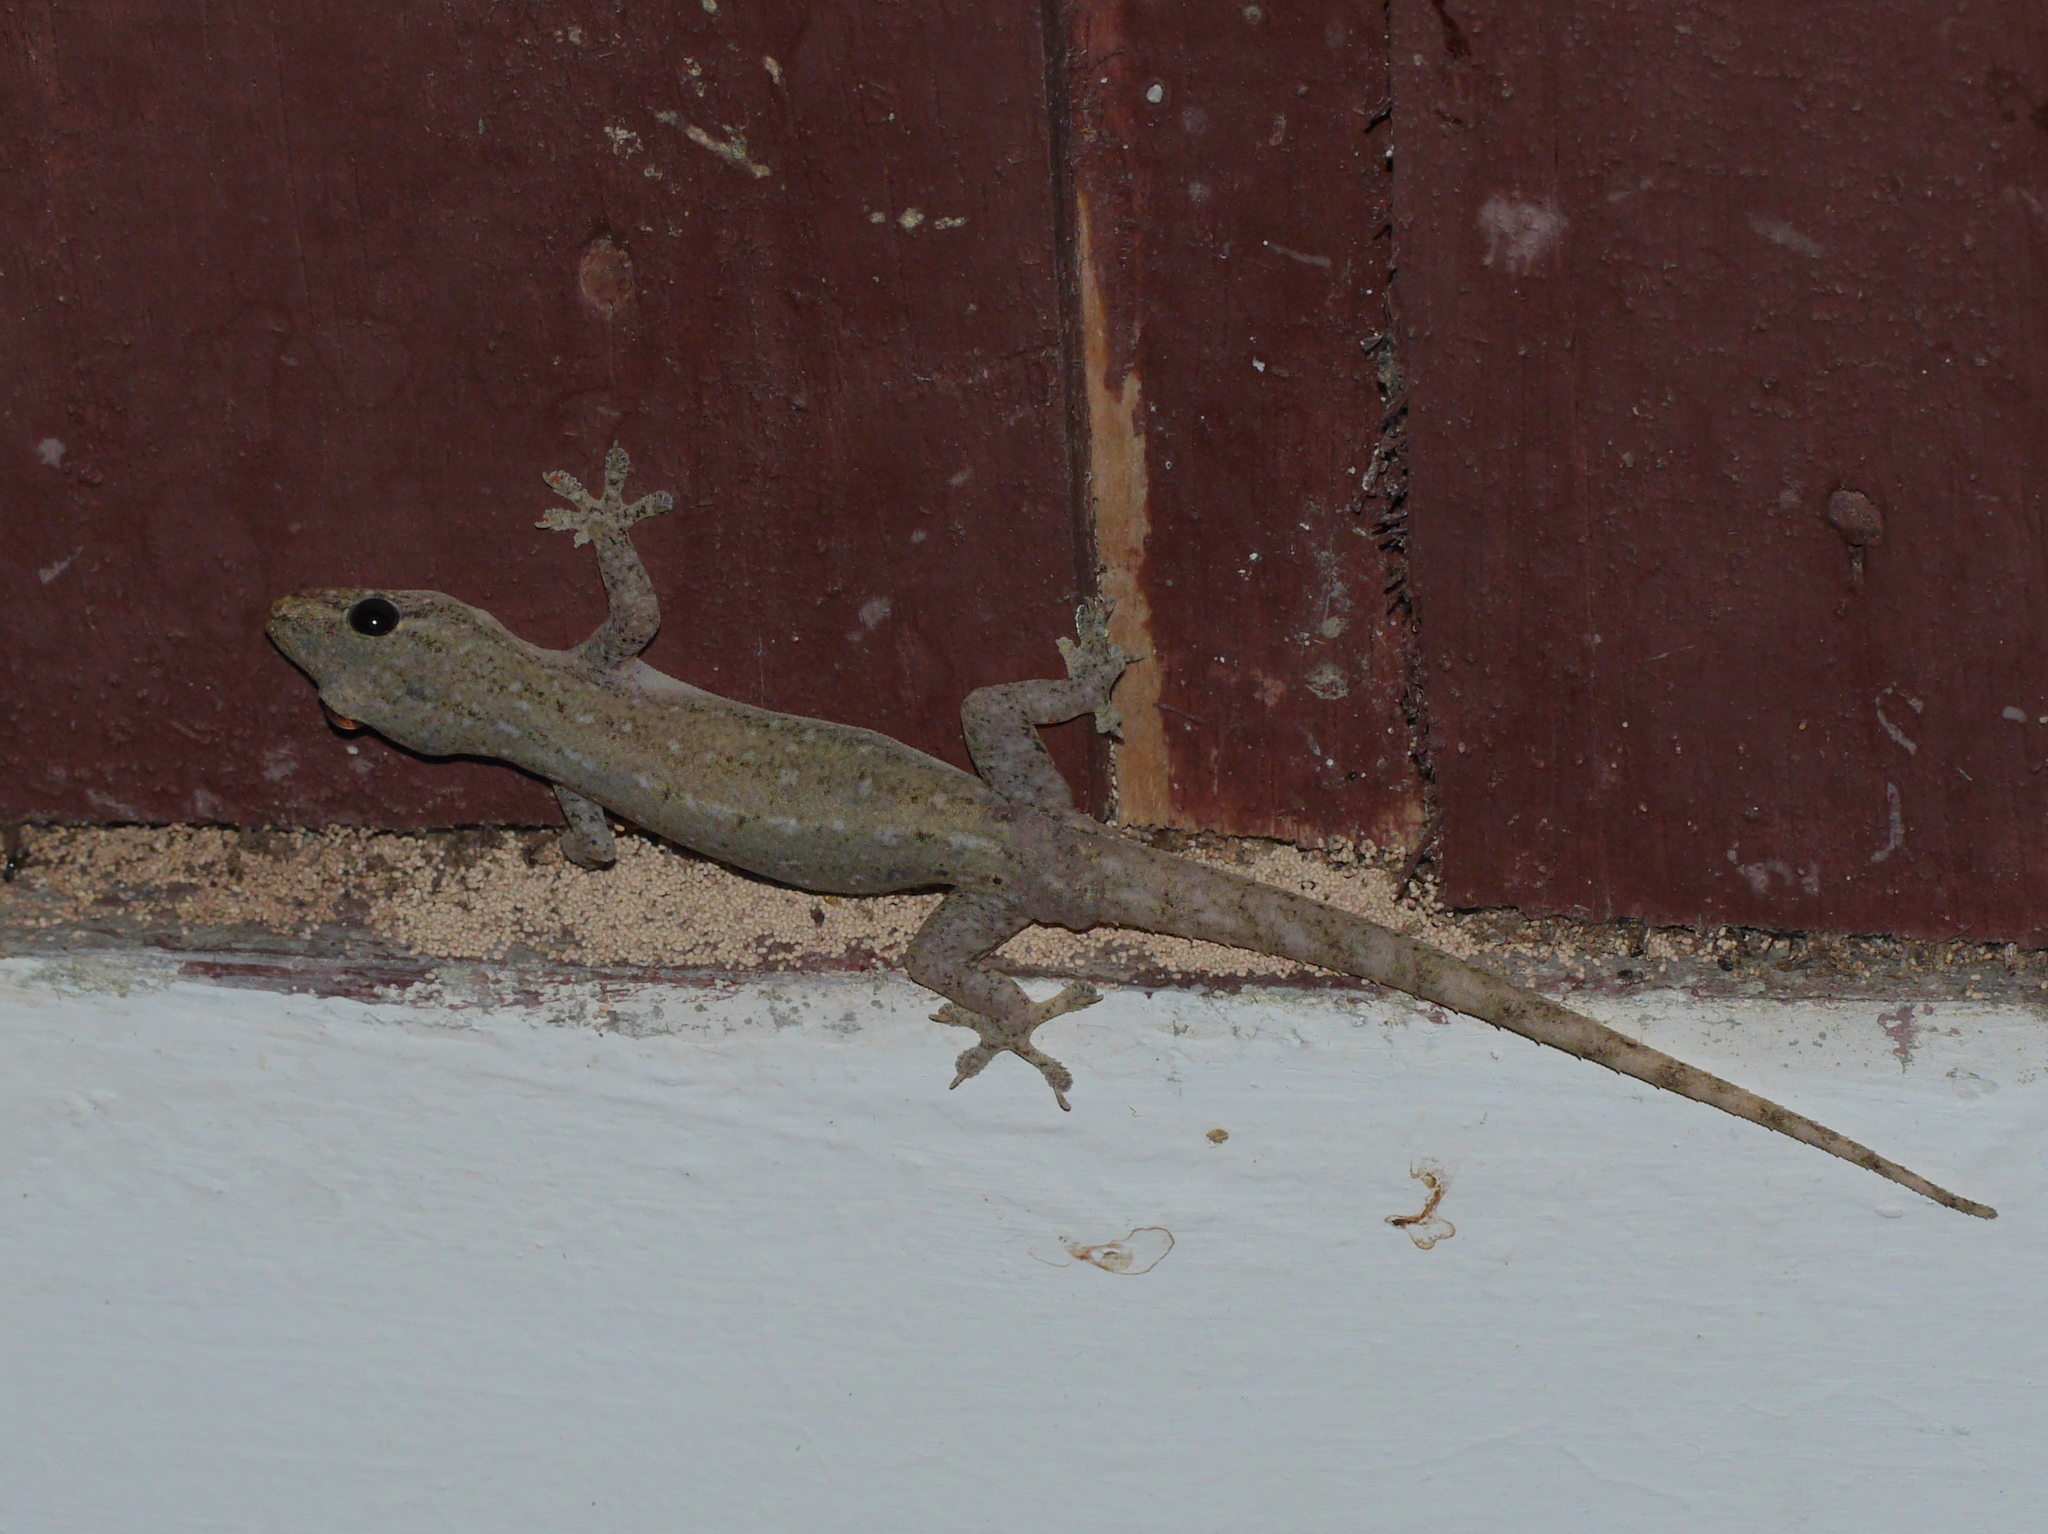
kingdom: Animalia
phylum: Chordata
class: Squamata
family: Gekkonidae
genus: Hemidactylus
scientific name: Hemidactylus frenatus
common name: Common house gecko
